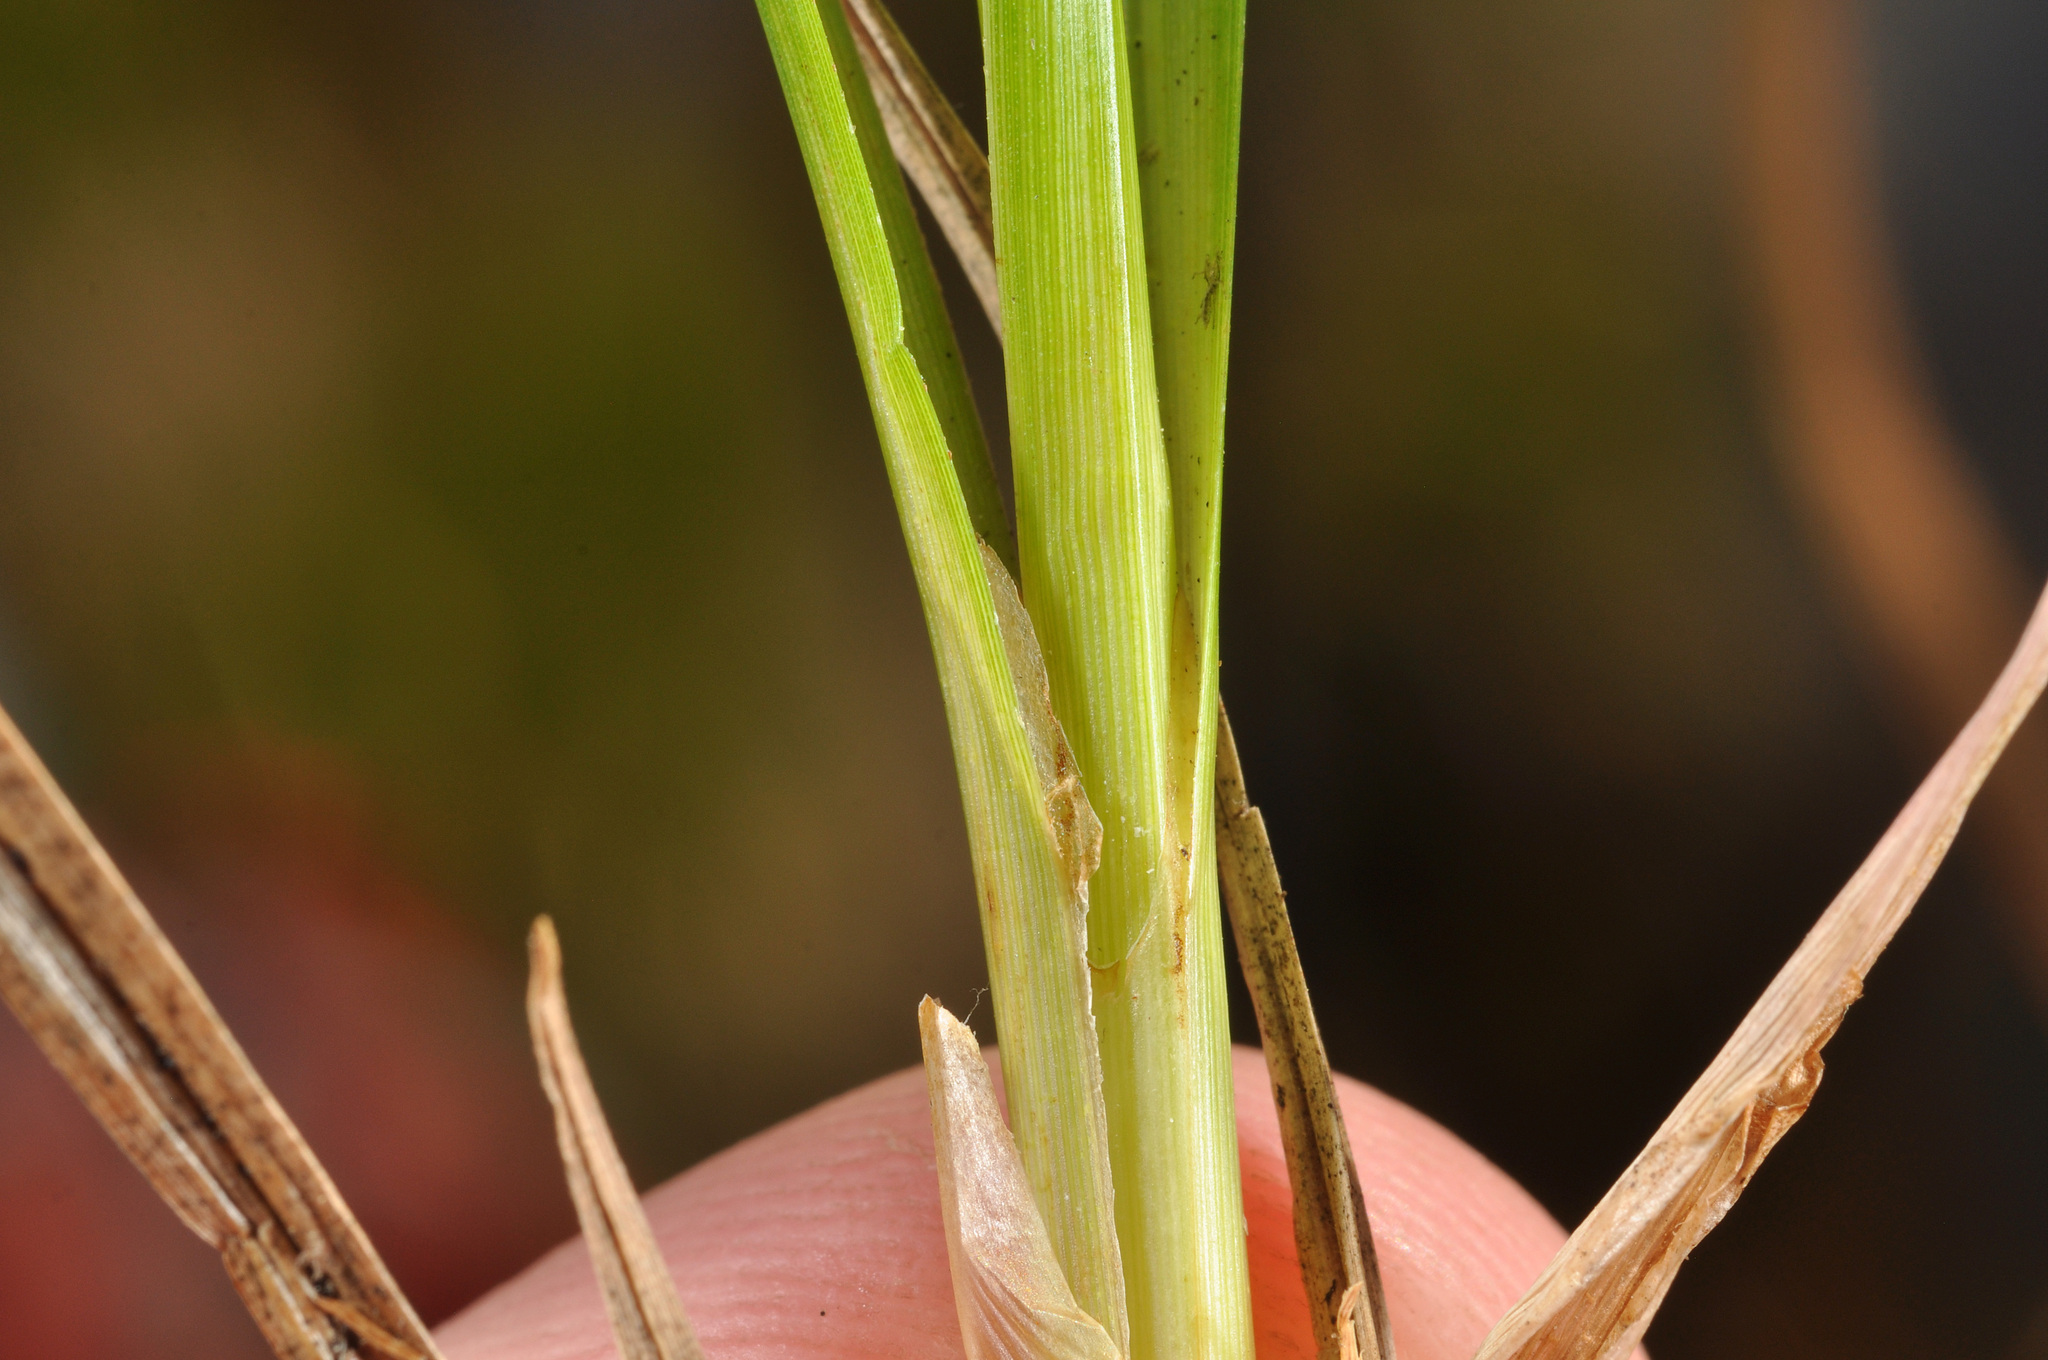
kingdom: Plantae
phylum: Tracheophyta
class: Liliopsida
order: Poales
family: Cyperaceae
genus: Carex
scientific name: Carex sinclairii
